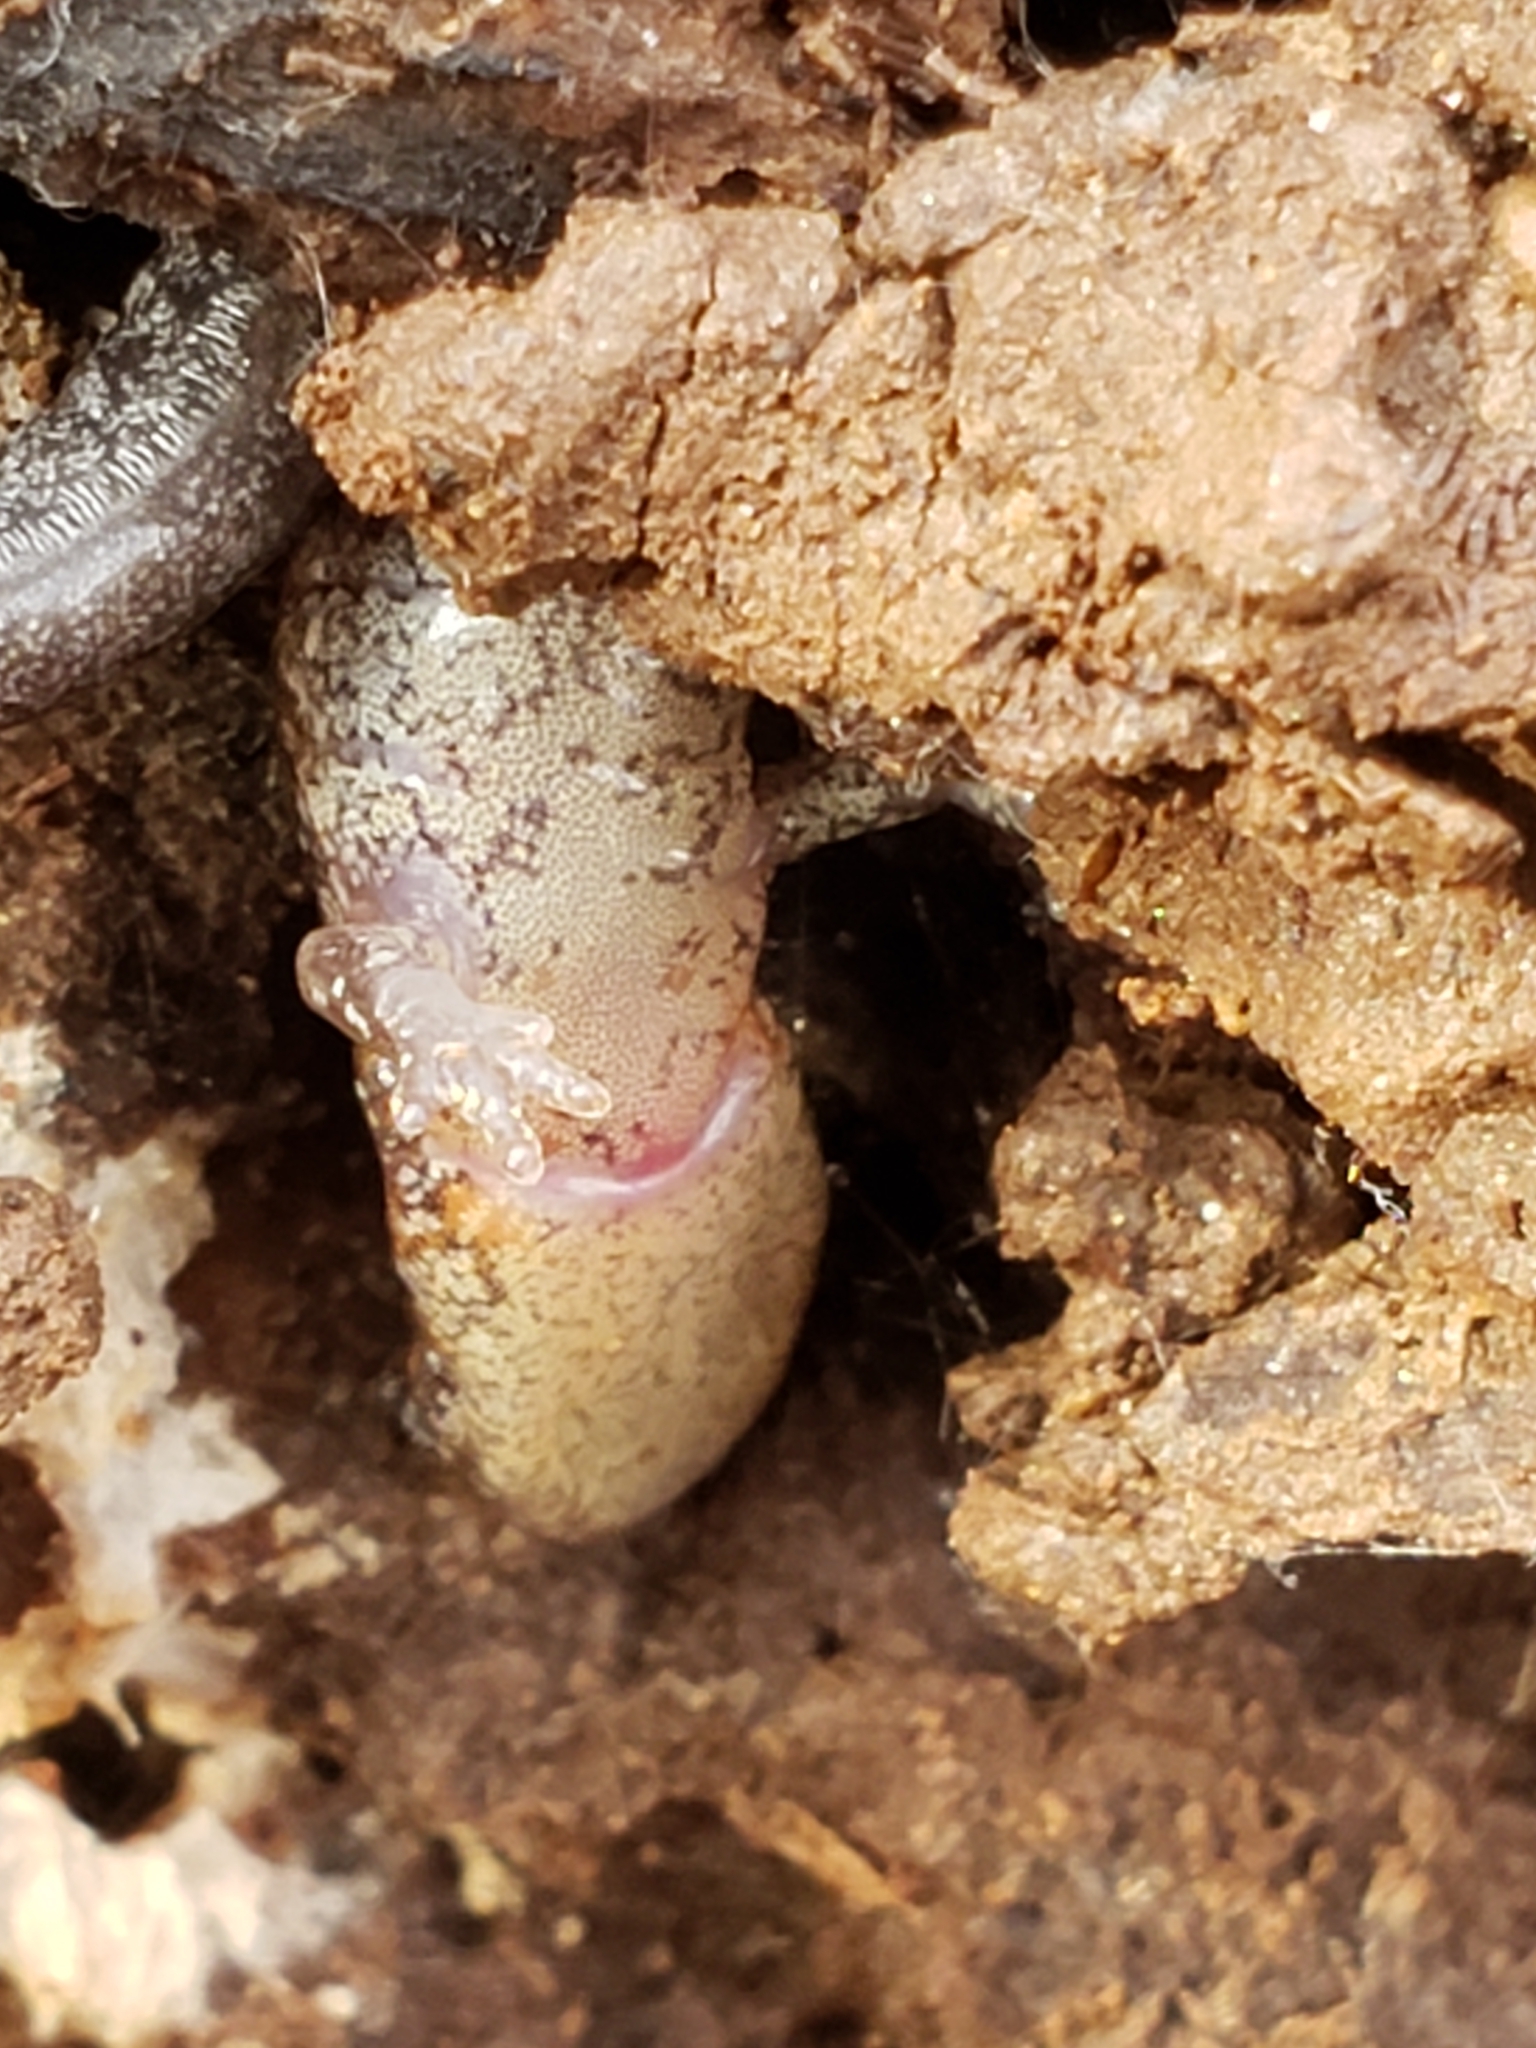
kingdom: Animalia
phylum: Chordata
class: Amphibia
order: Caudata
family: Plethodontidae
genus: Plethodon
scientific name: Plethodon cinereus
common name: Redback salamander
